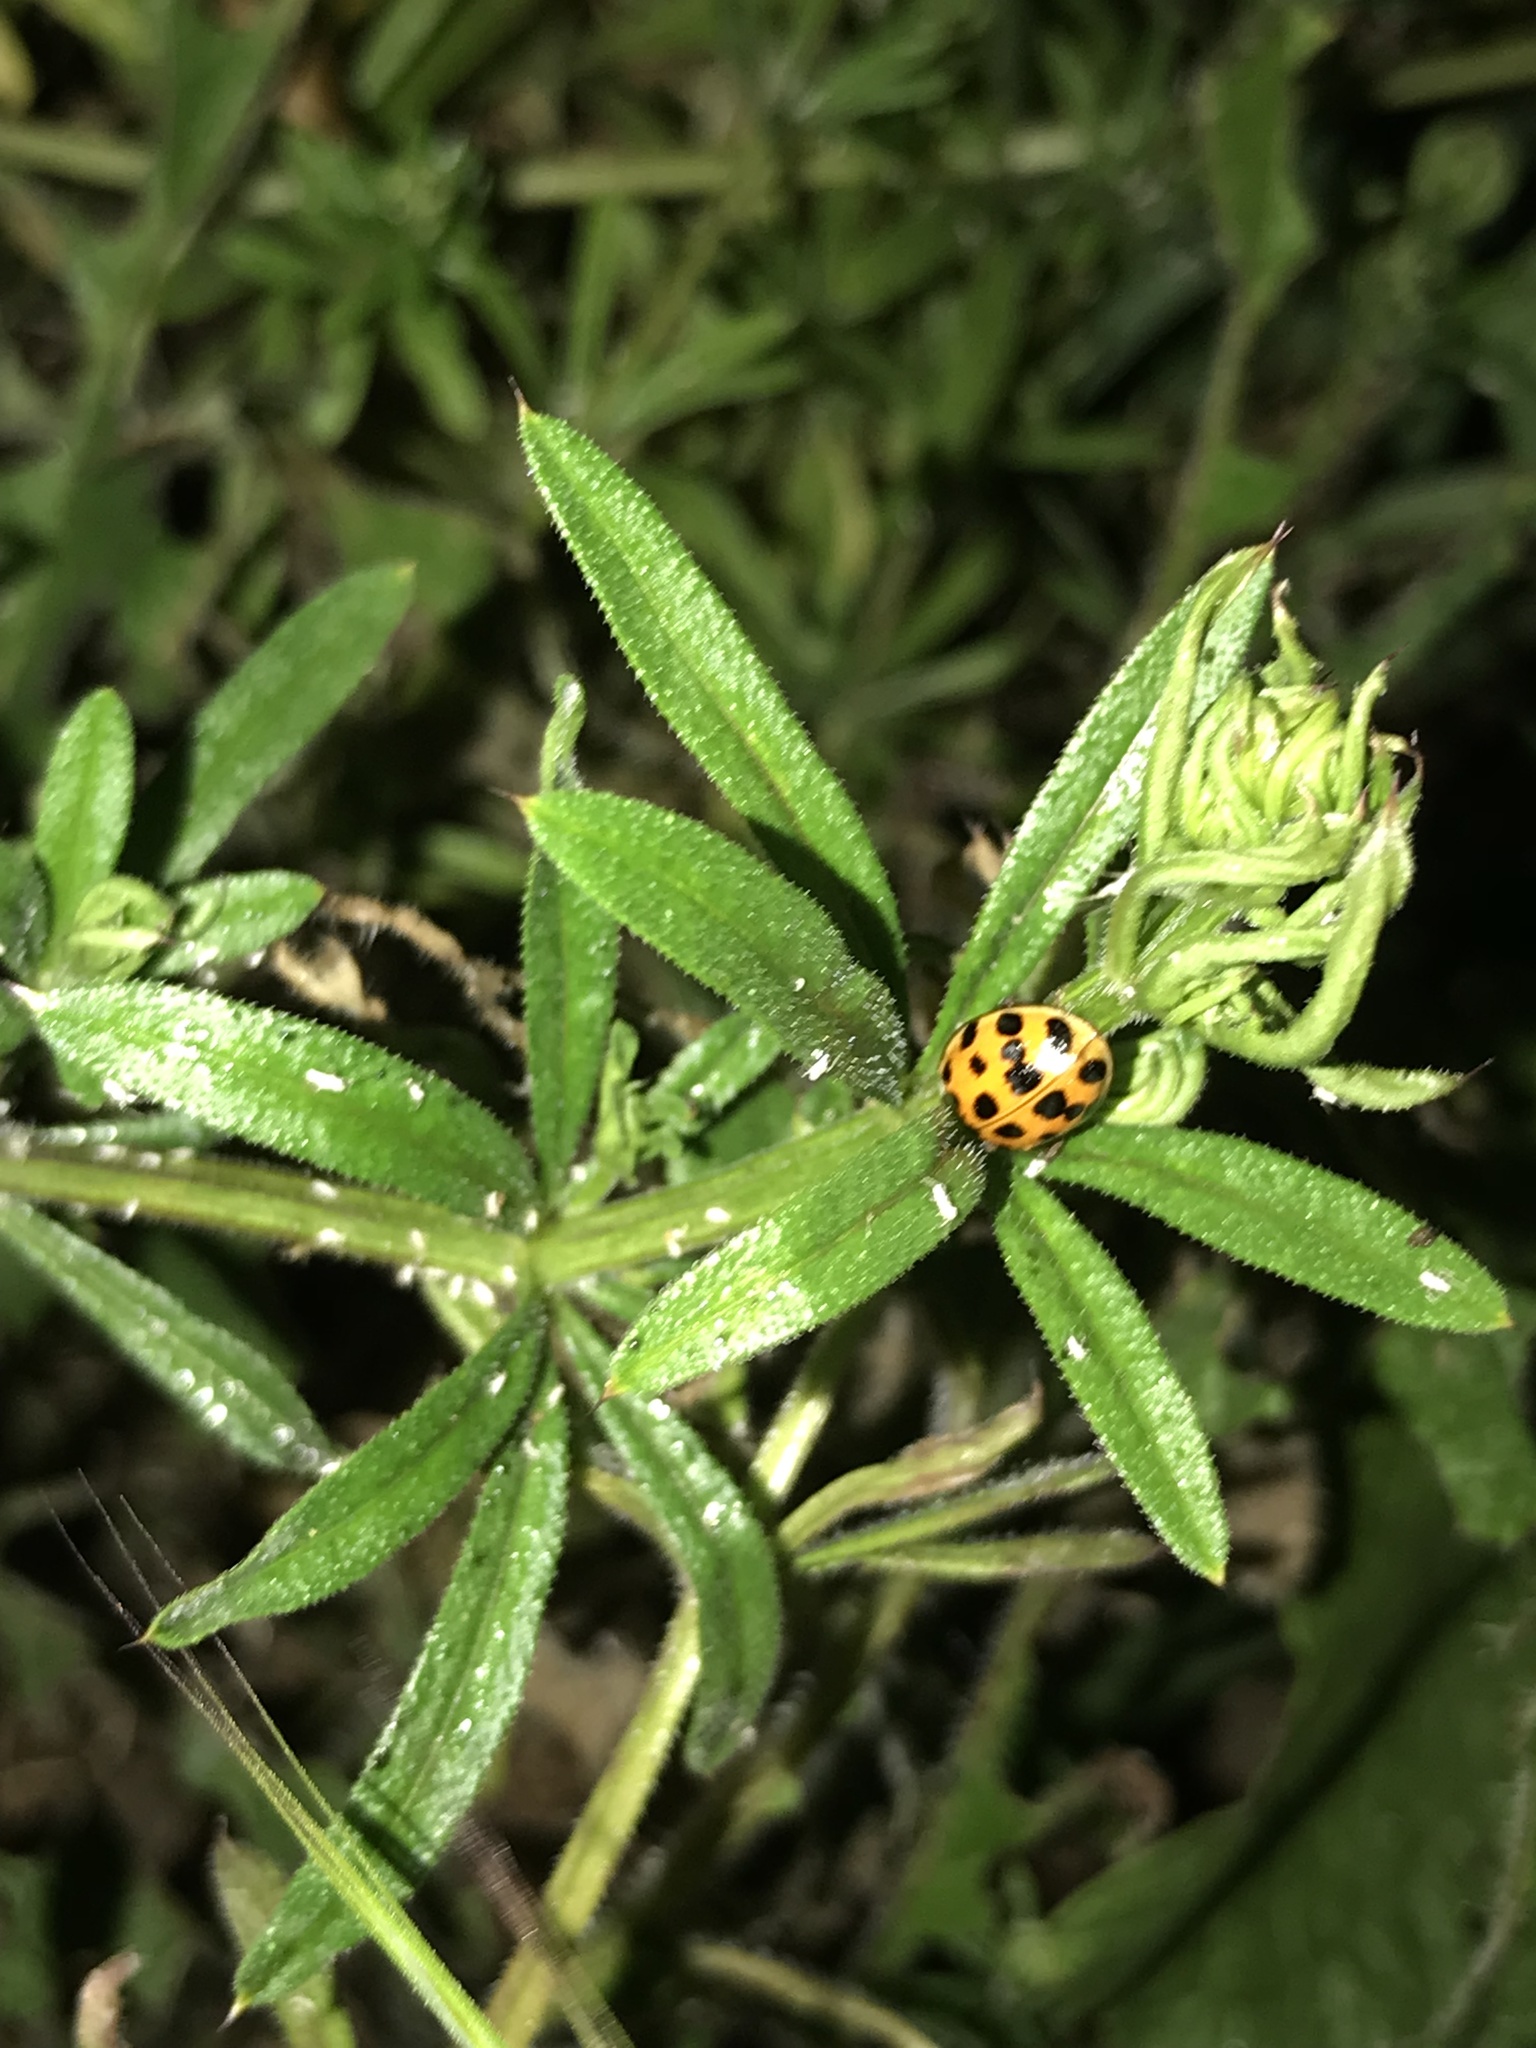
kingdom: Animalia
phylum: Arthropoda
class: Insecta
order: Coleoptera
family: Coccinellidae
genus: Harmonia
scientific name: Harmonia axyridis
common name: Harlequin ladybird
